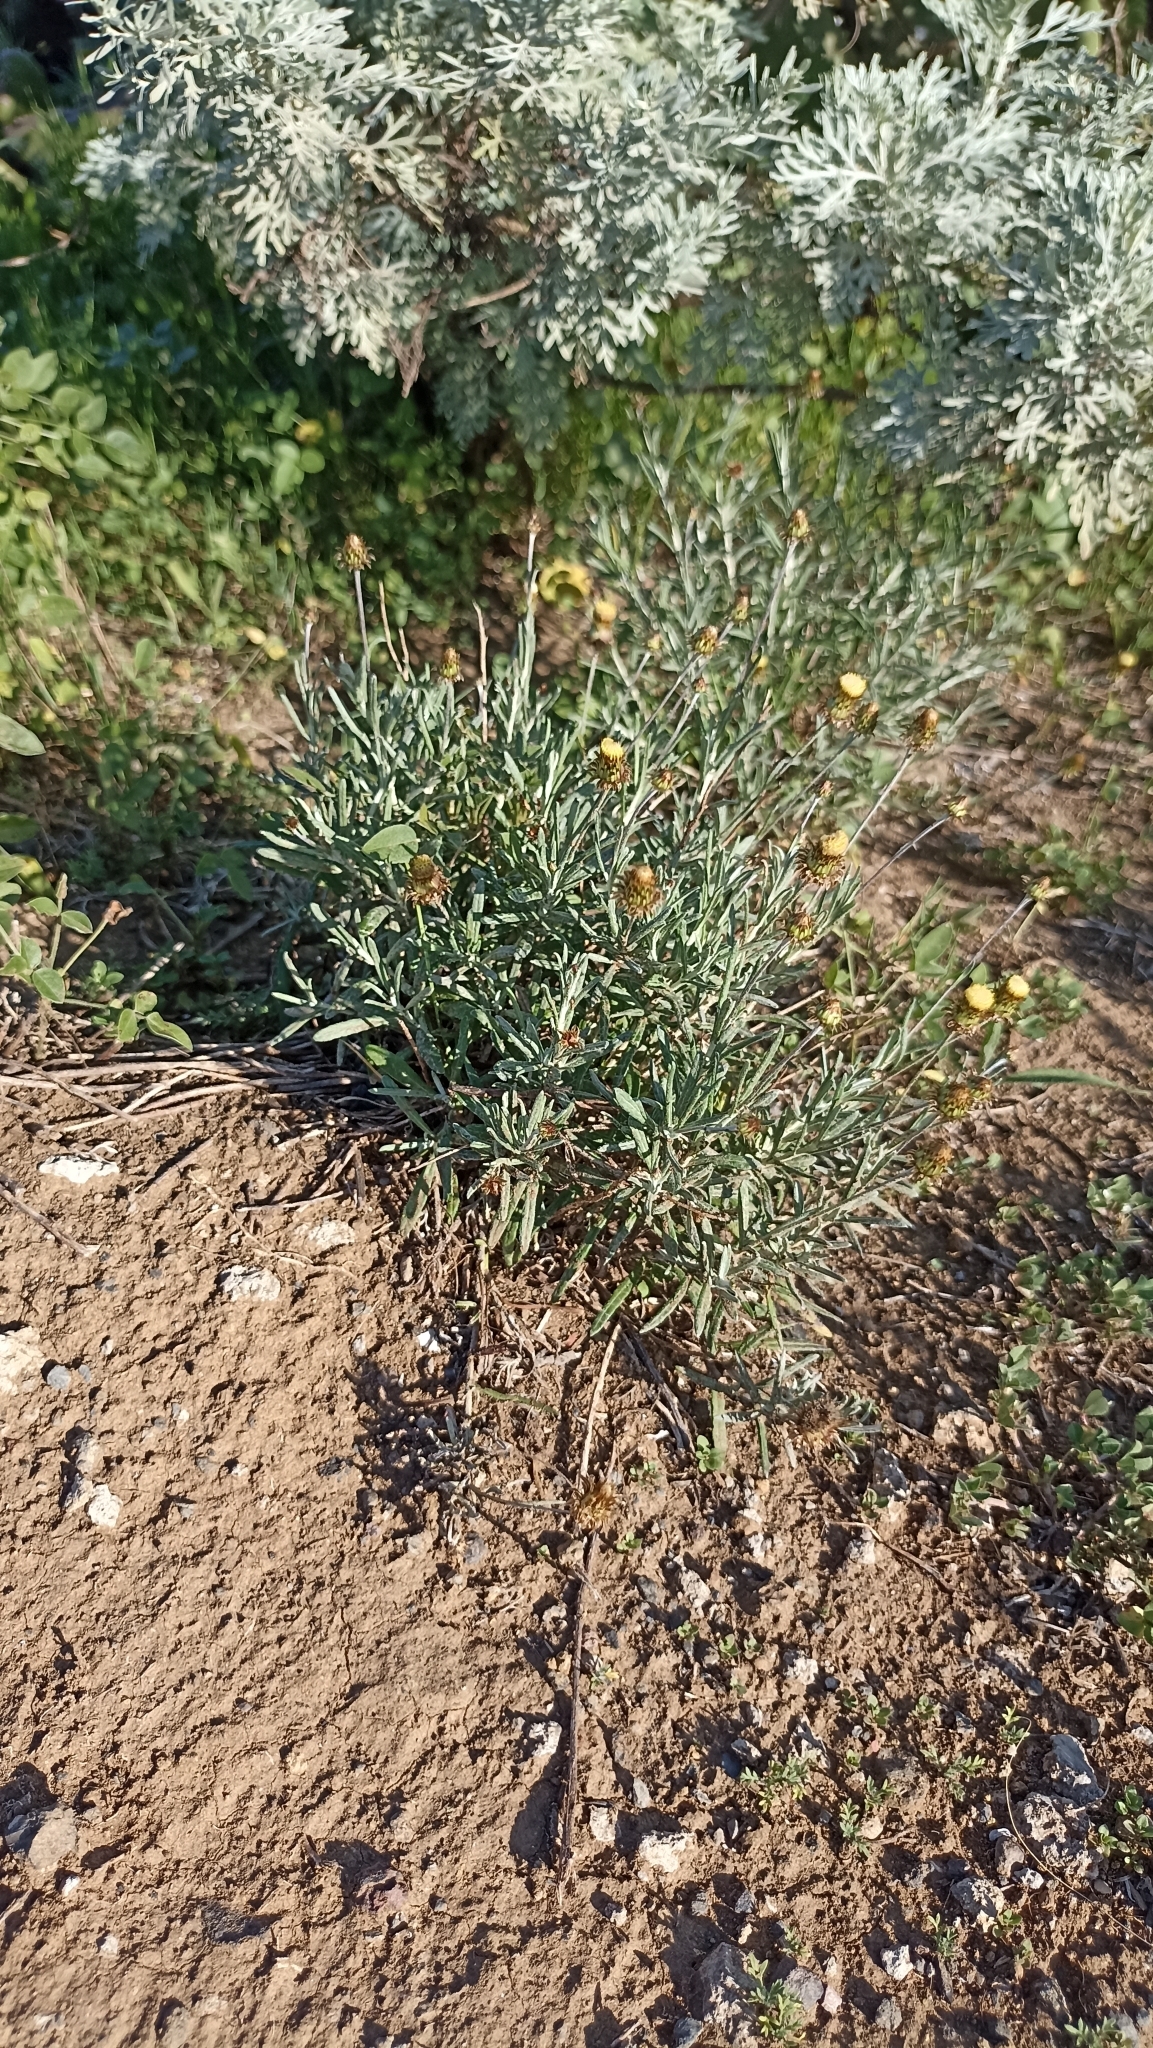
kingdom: Plantae
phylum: Tracheophyta
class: Magnoliopsida
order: Asterales
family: Asteraceae
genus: Phagnalon
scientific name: Phagnalon saxatile
